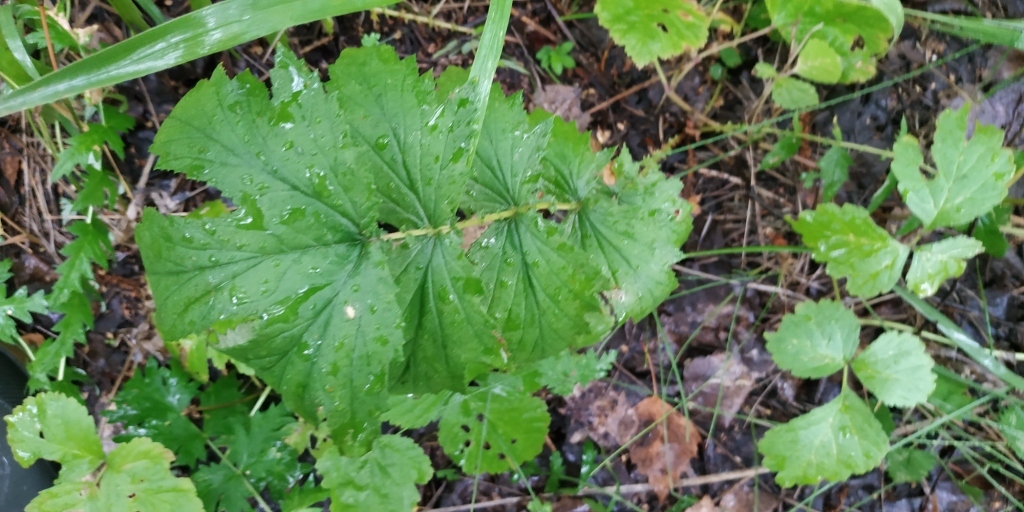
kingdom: Plantae
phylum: Tracheophyta
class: Magnoliopsida
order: Rosales
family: Rosaceae
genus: Filipendula
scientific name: Filipendula ulmaria
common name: Meadowsweet
